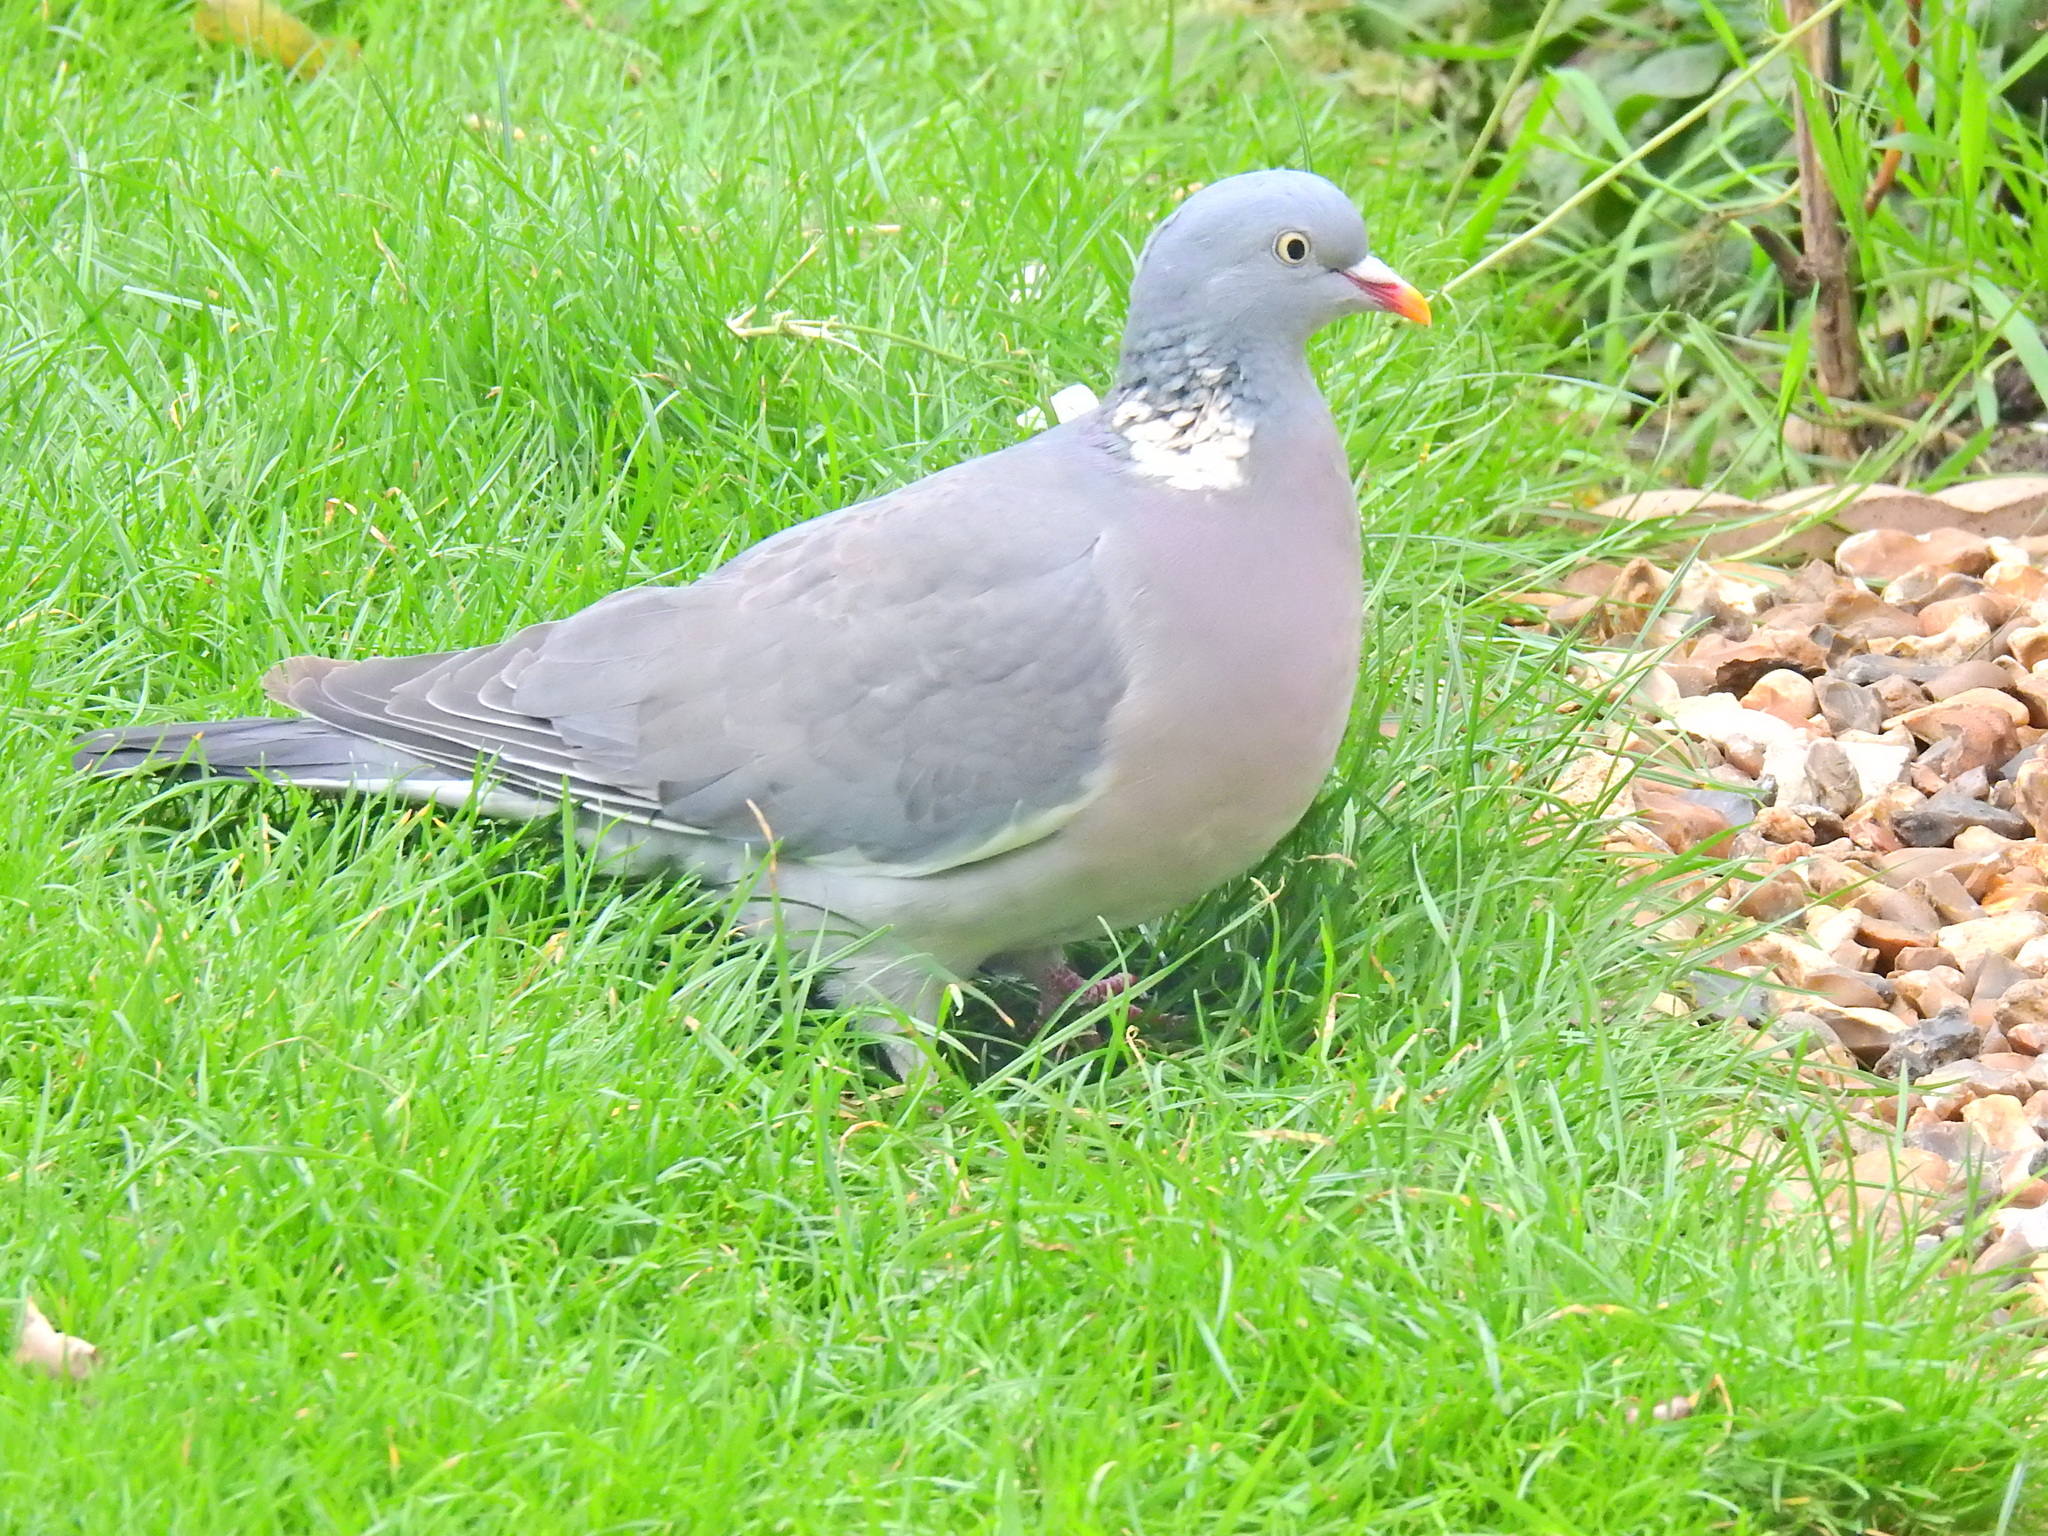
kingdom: Animalia
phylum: Chordata
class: Aves
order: Columbiformes
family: Columbidae
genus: Columba
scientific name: Columba palumbus
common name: Common wood pigeon
